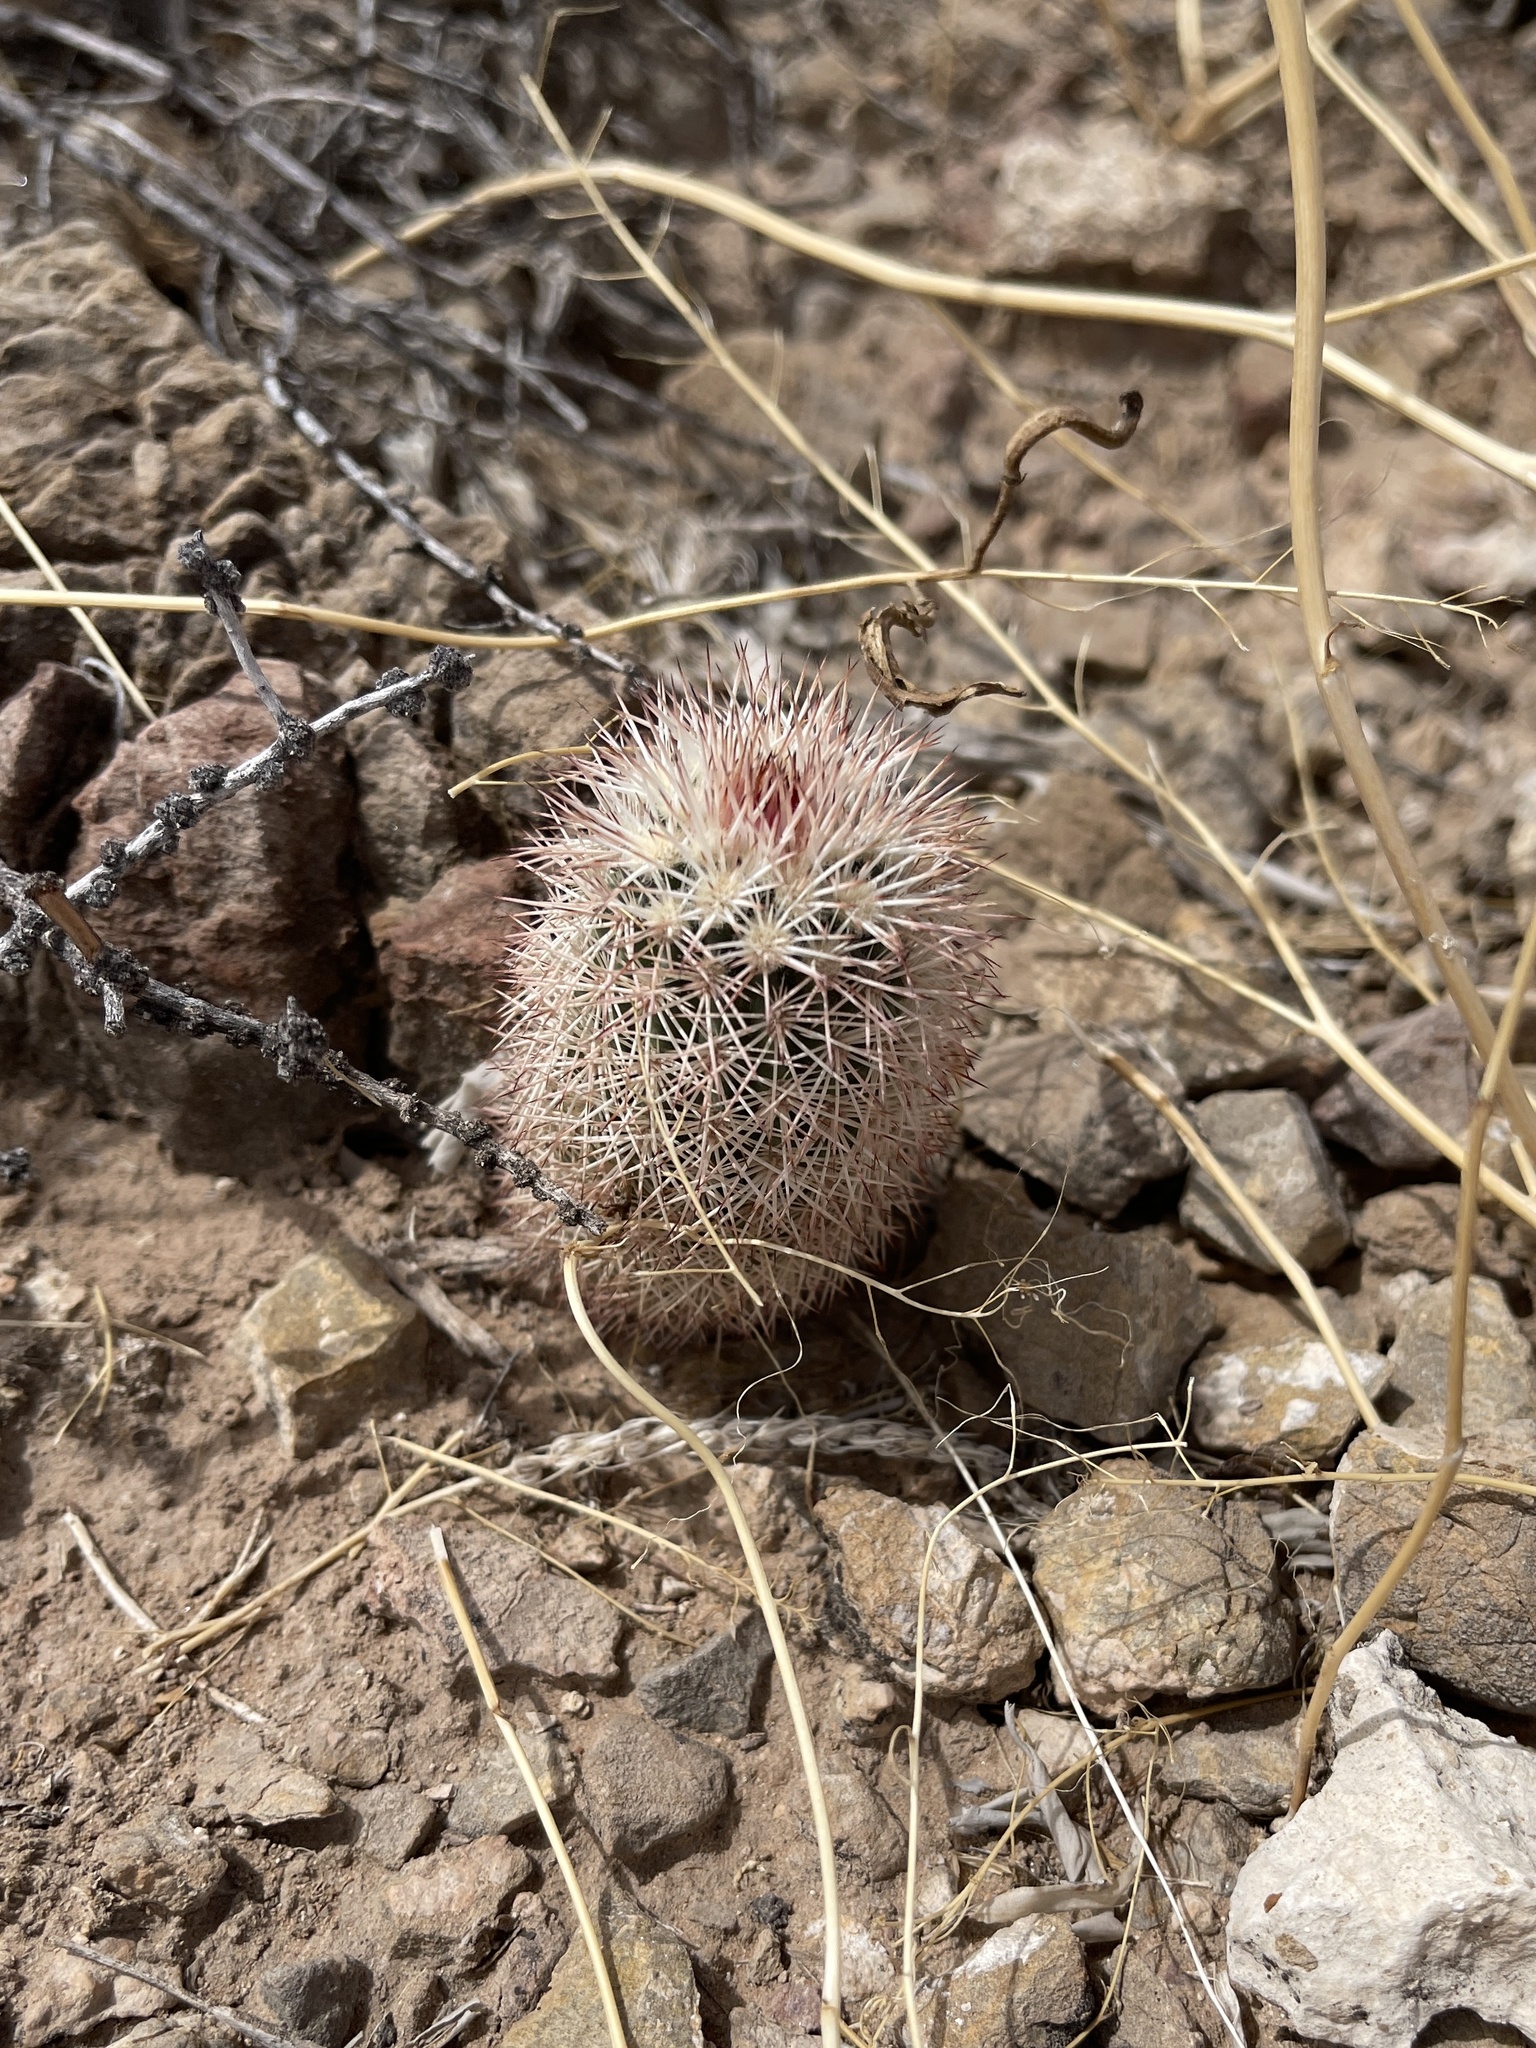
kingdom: Plantae
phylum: Tracheophyta
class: Magnoliopsida
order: Caryophyllales
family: Cactaceae
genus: Echinocereus
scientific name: Echinocereus dasyacanthus
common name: Spiny hedgehog cactus
